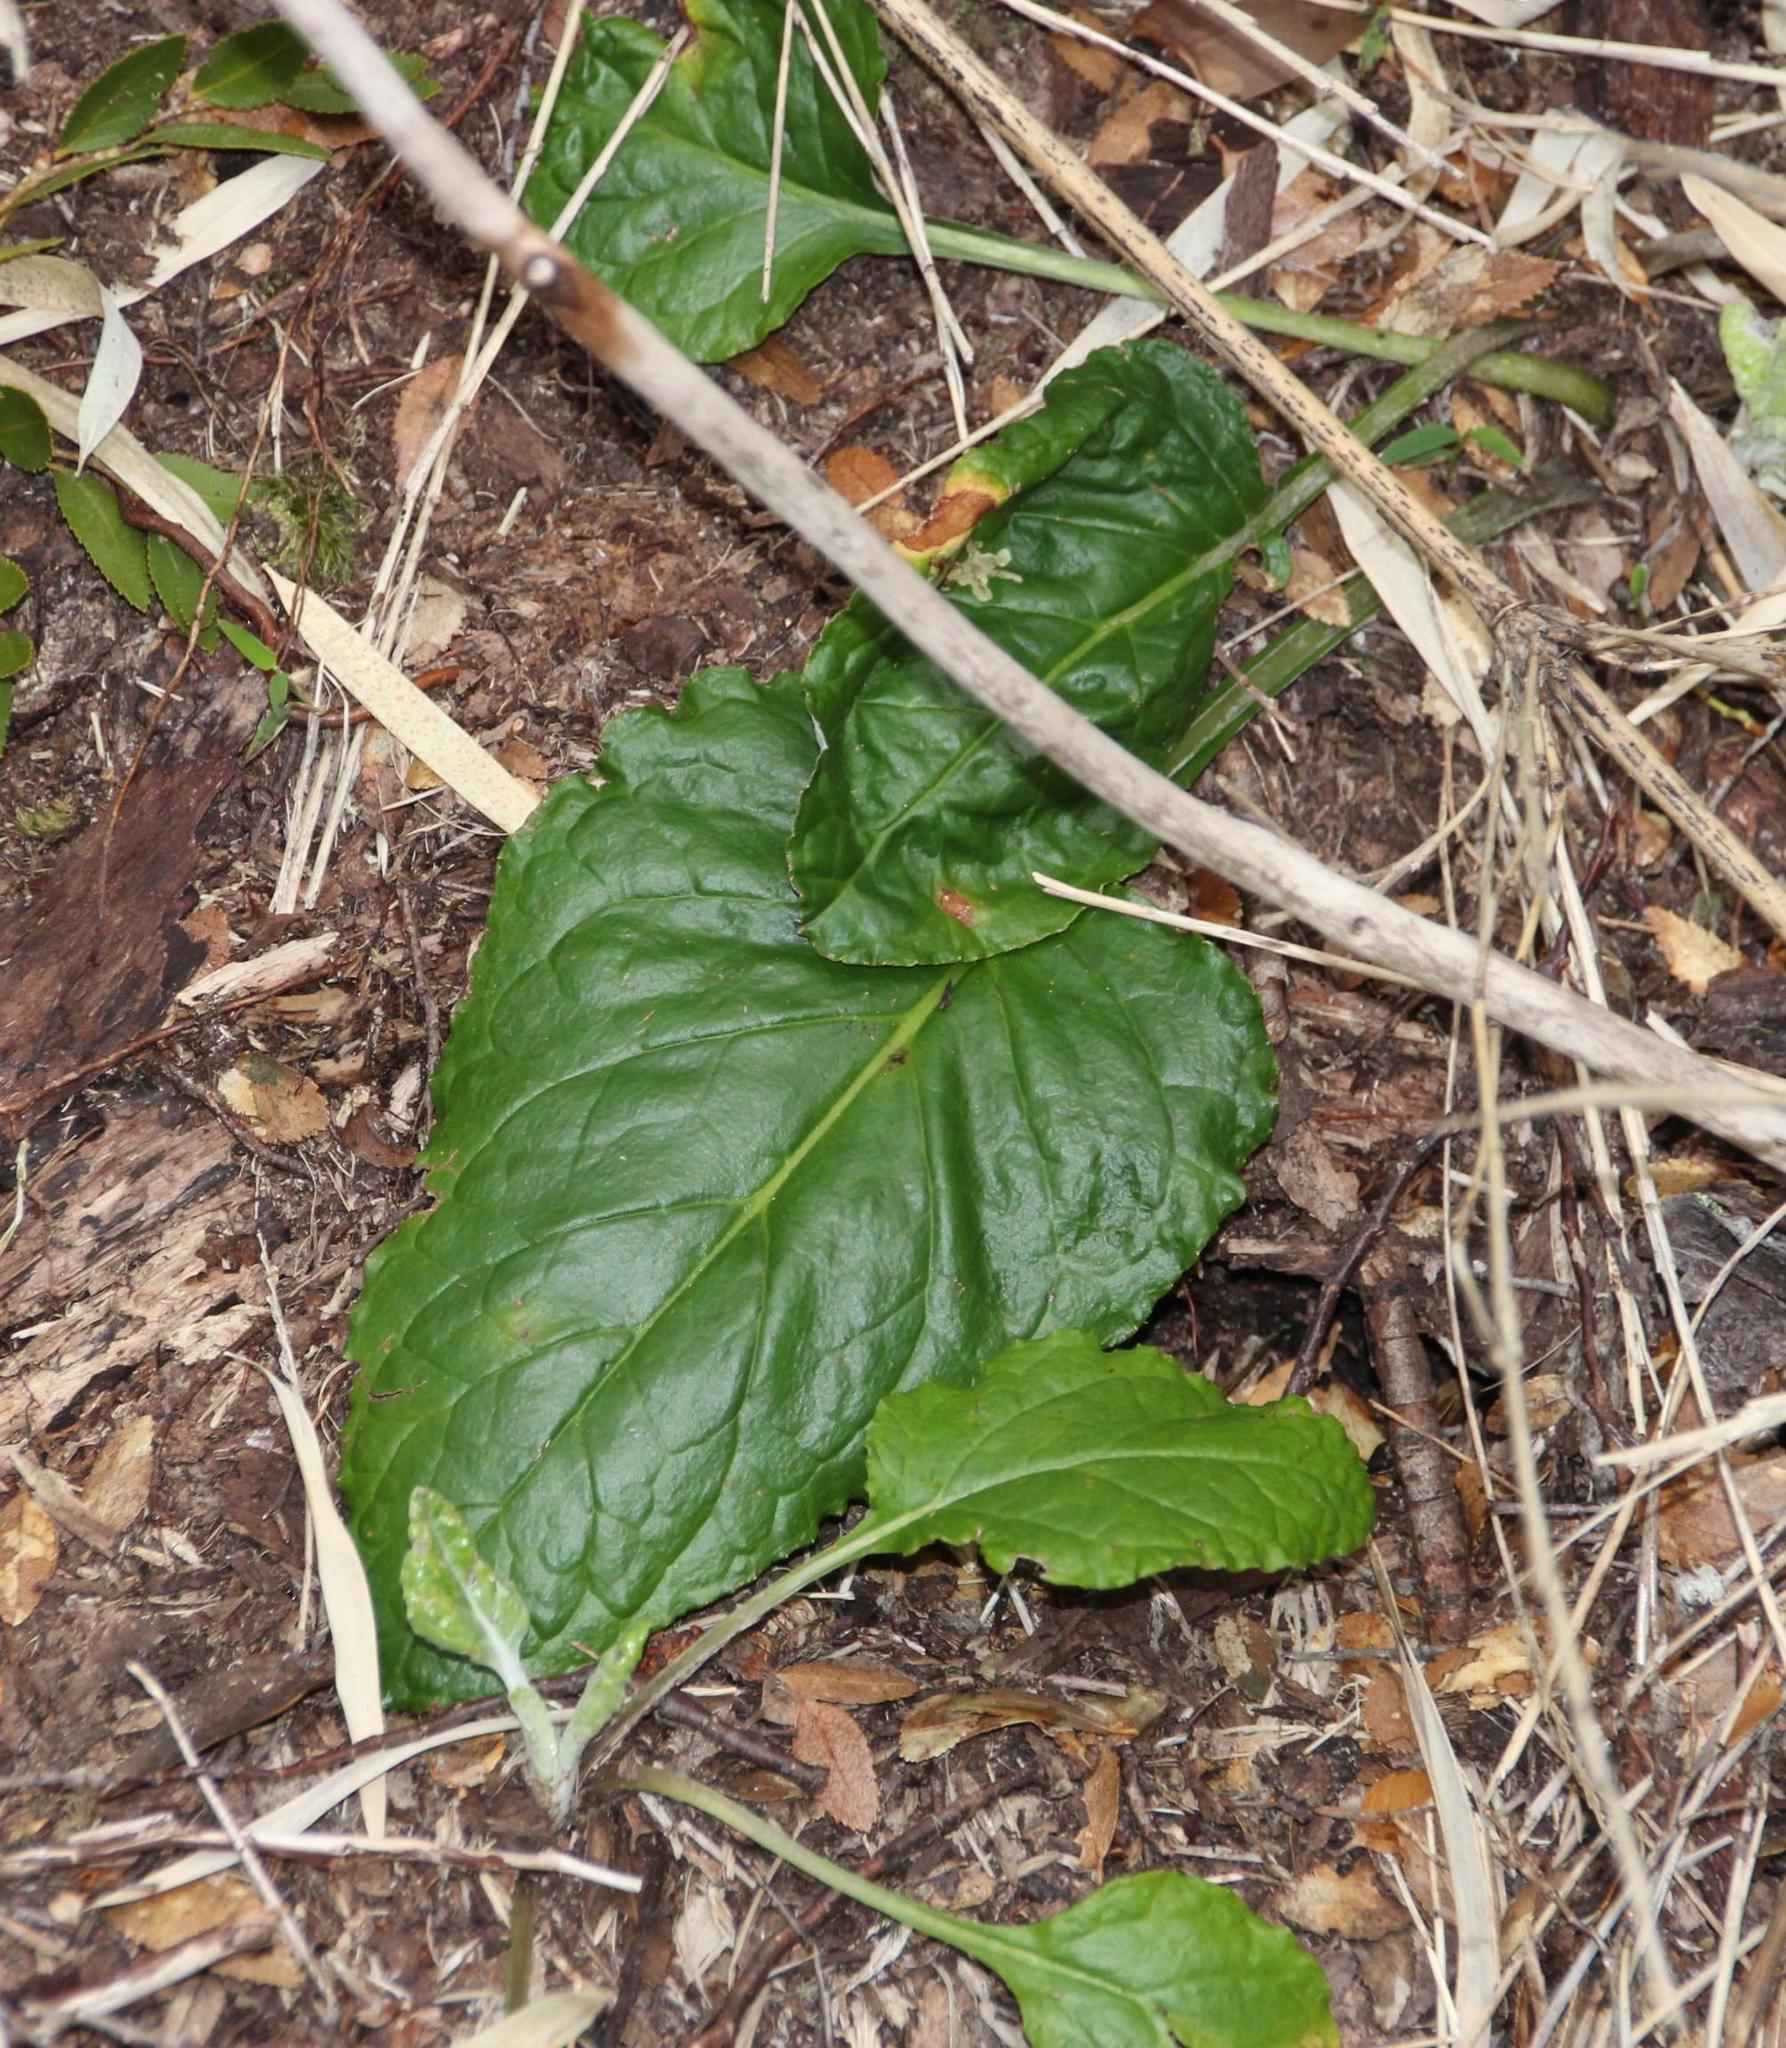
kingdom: Plantae
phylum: Tracheophyta
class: Magnoliopsida
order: Asterales
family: Asteraceae
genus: Adenocaulon
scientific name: Adenocaulon chilense
